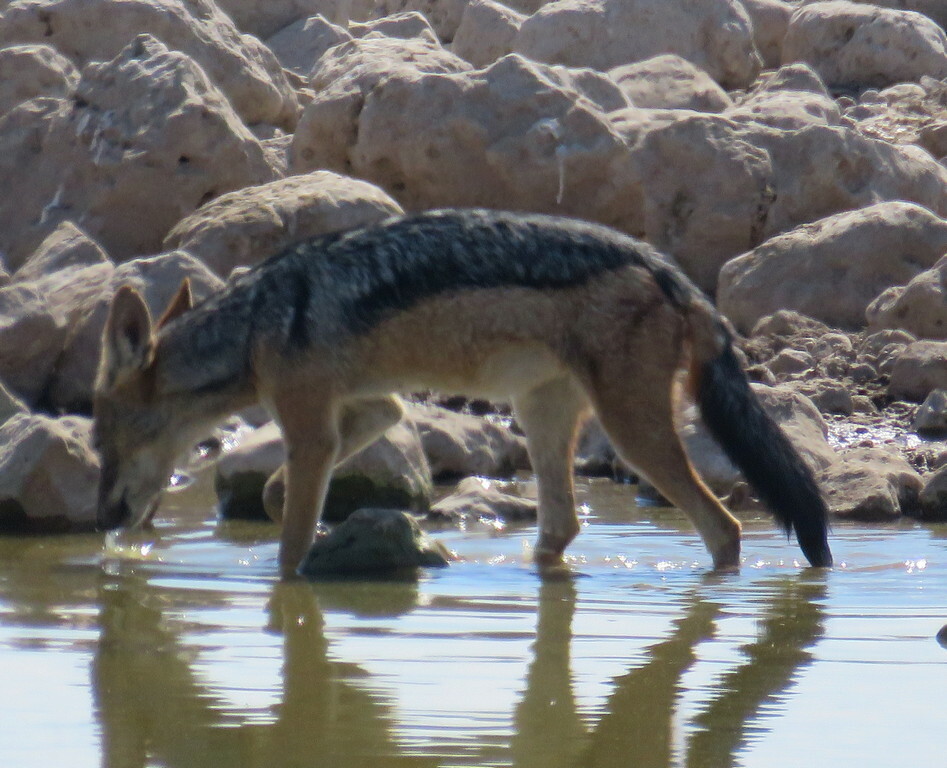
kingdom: Animalia
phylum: Chordata
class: Mammalia
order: Carnivora
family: Canidae
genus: Lupulella
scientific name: Lupulella
